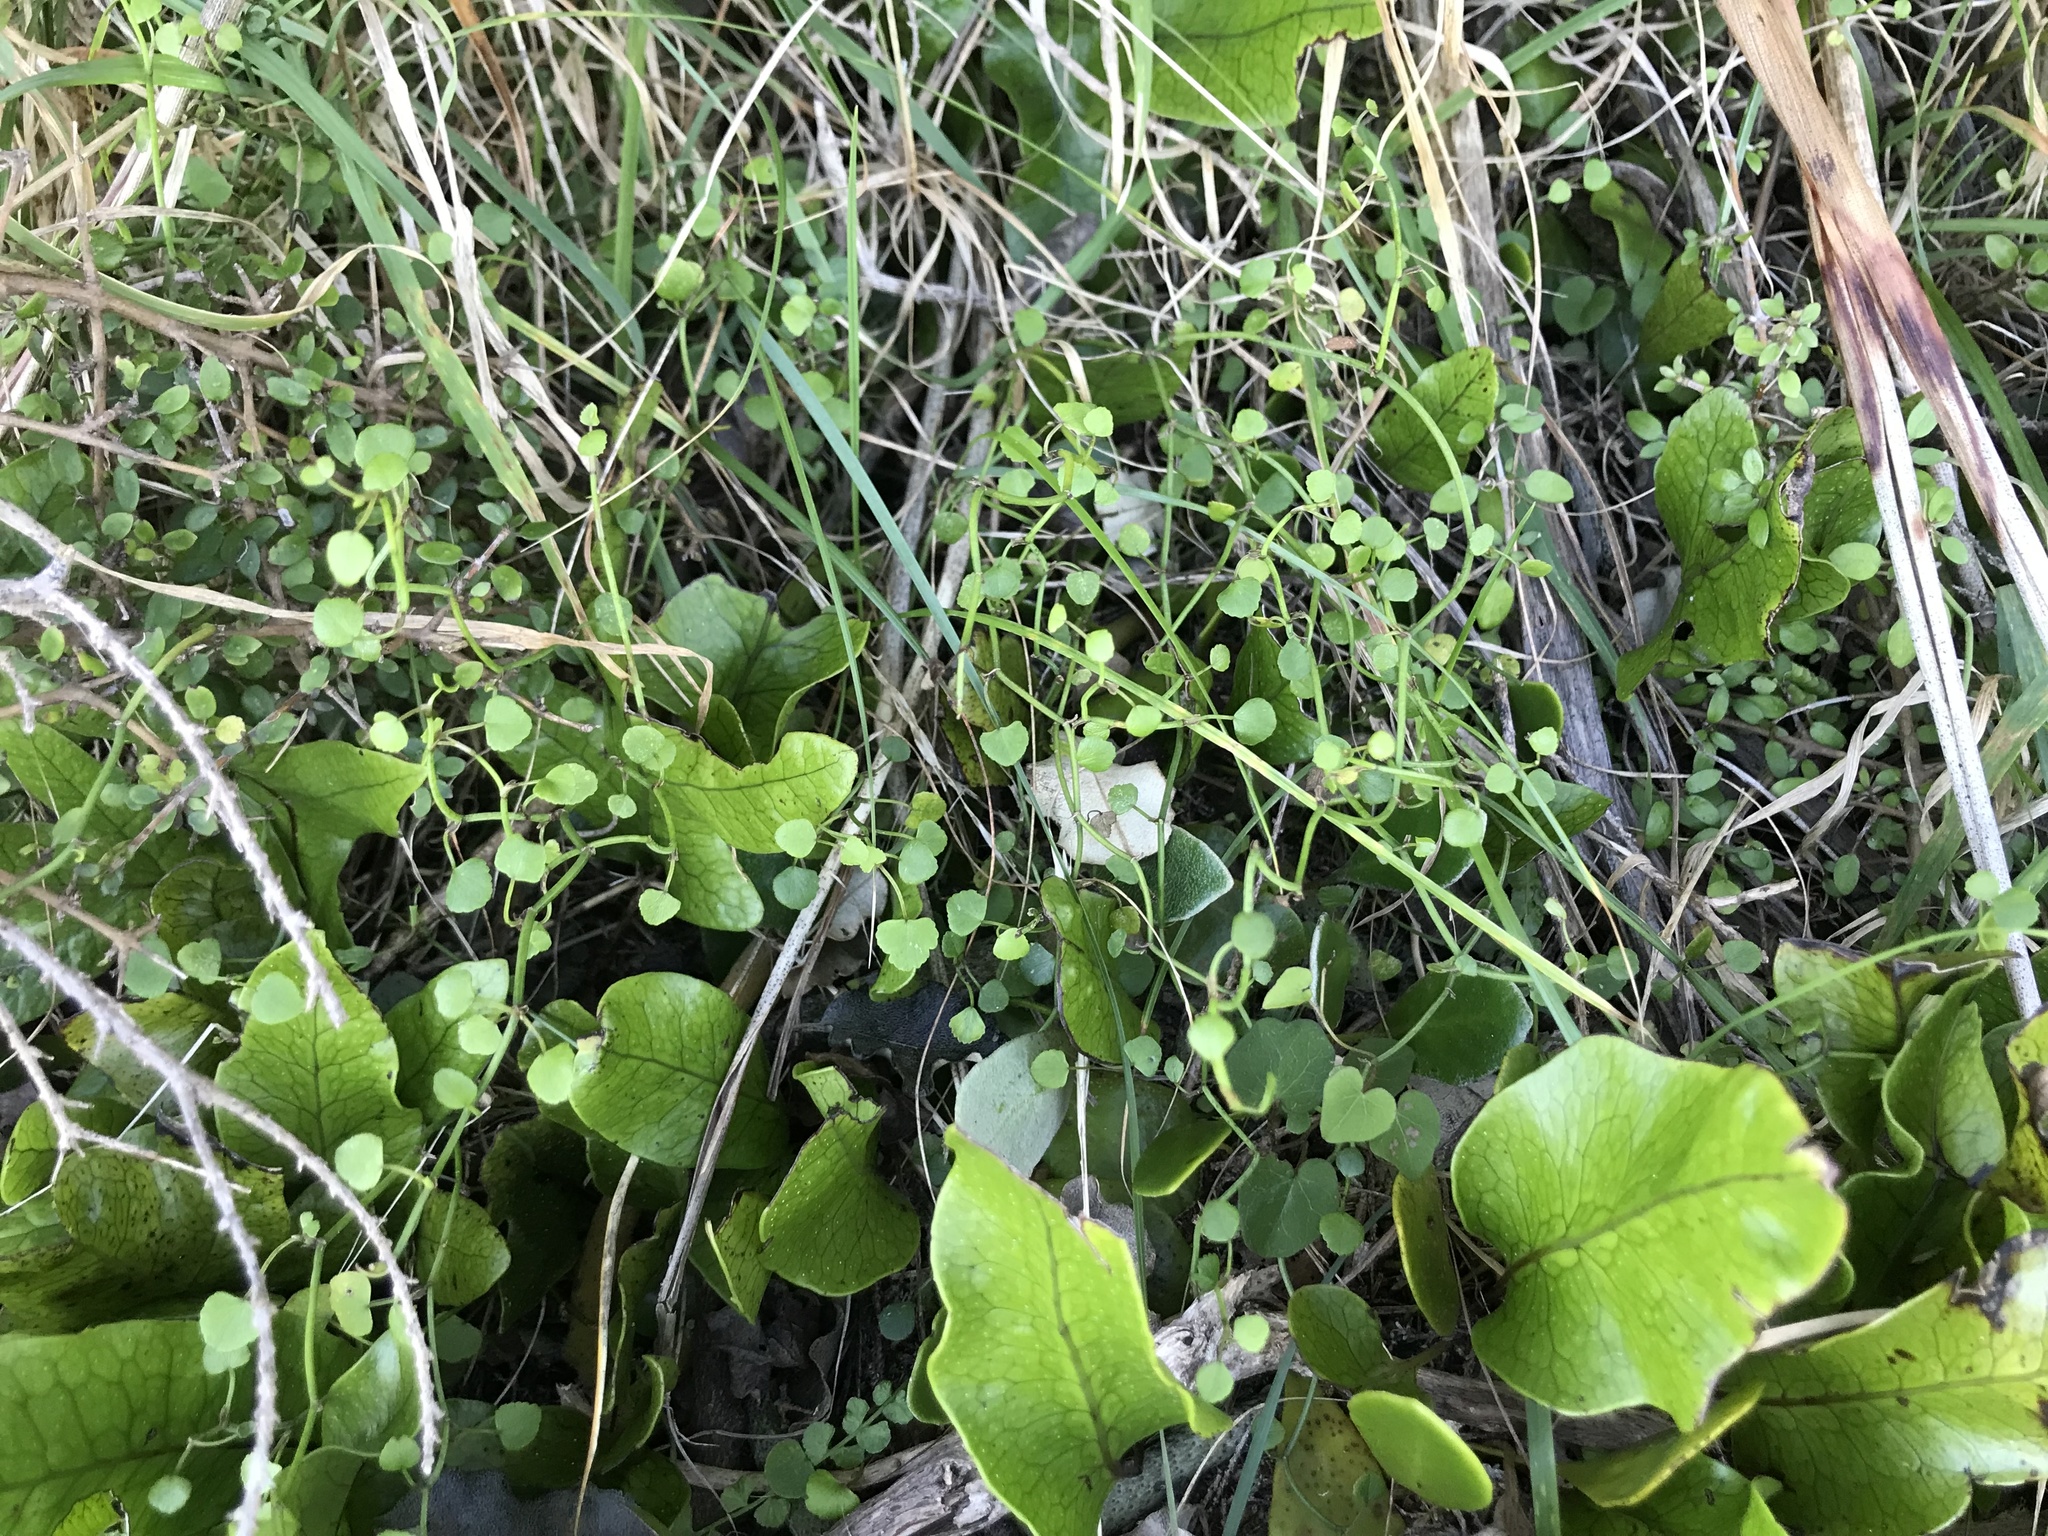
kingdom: Plantae
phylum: Tracheophyta
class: Magnoliopsida
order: Apiales
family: Apiaceae
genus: Scandia
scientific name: Scandia geniculata
